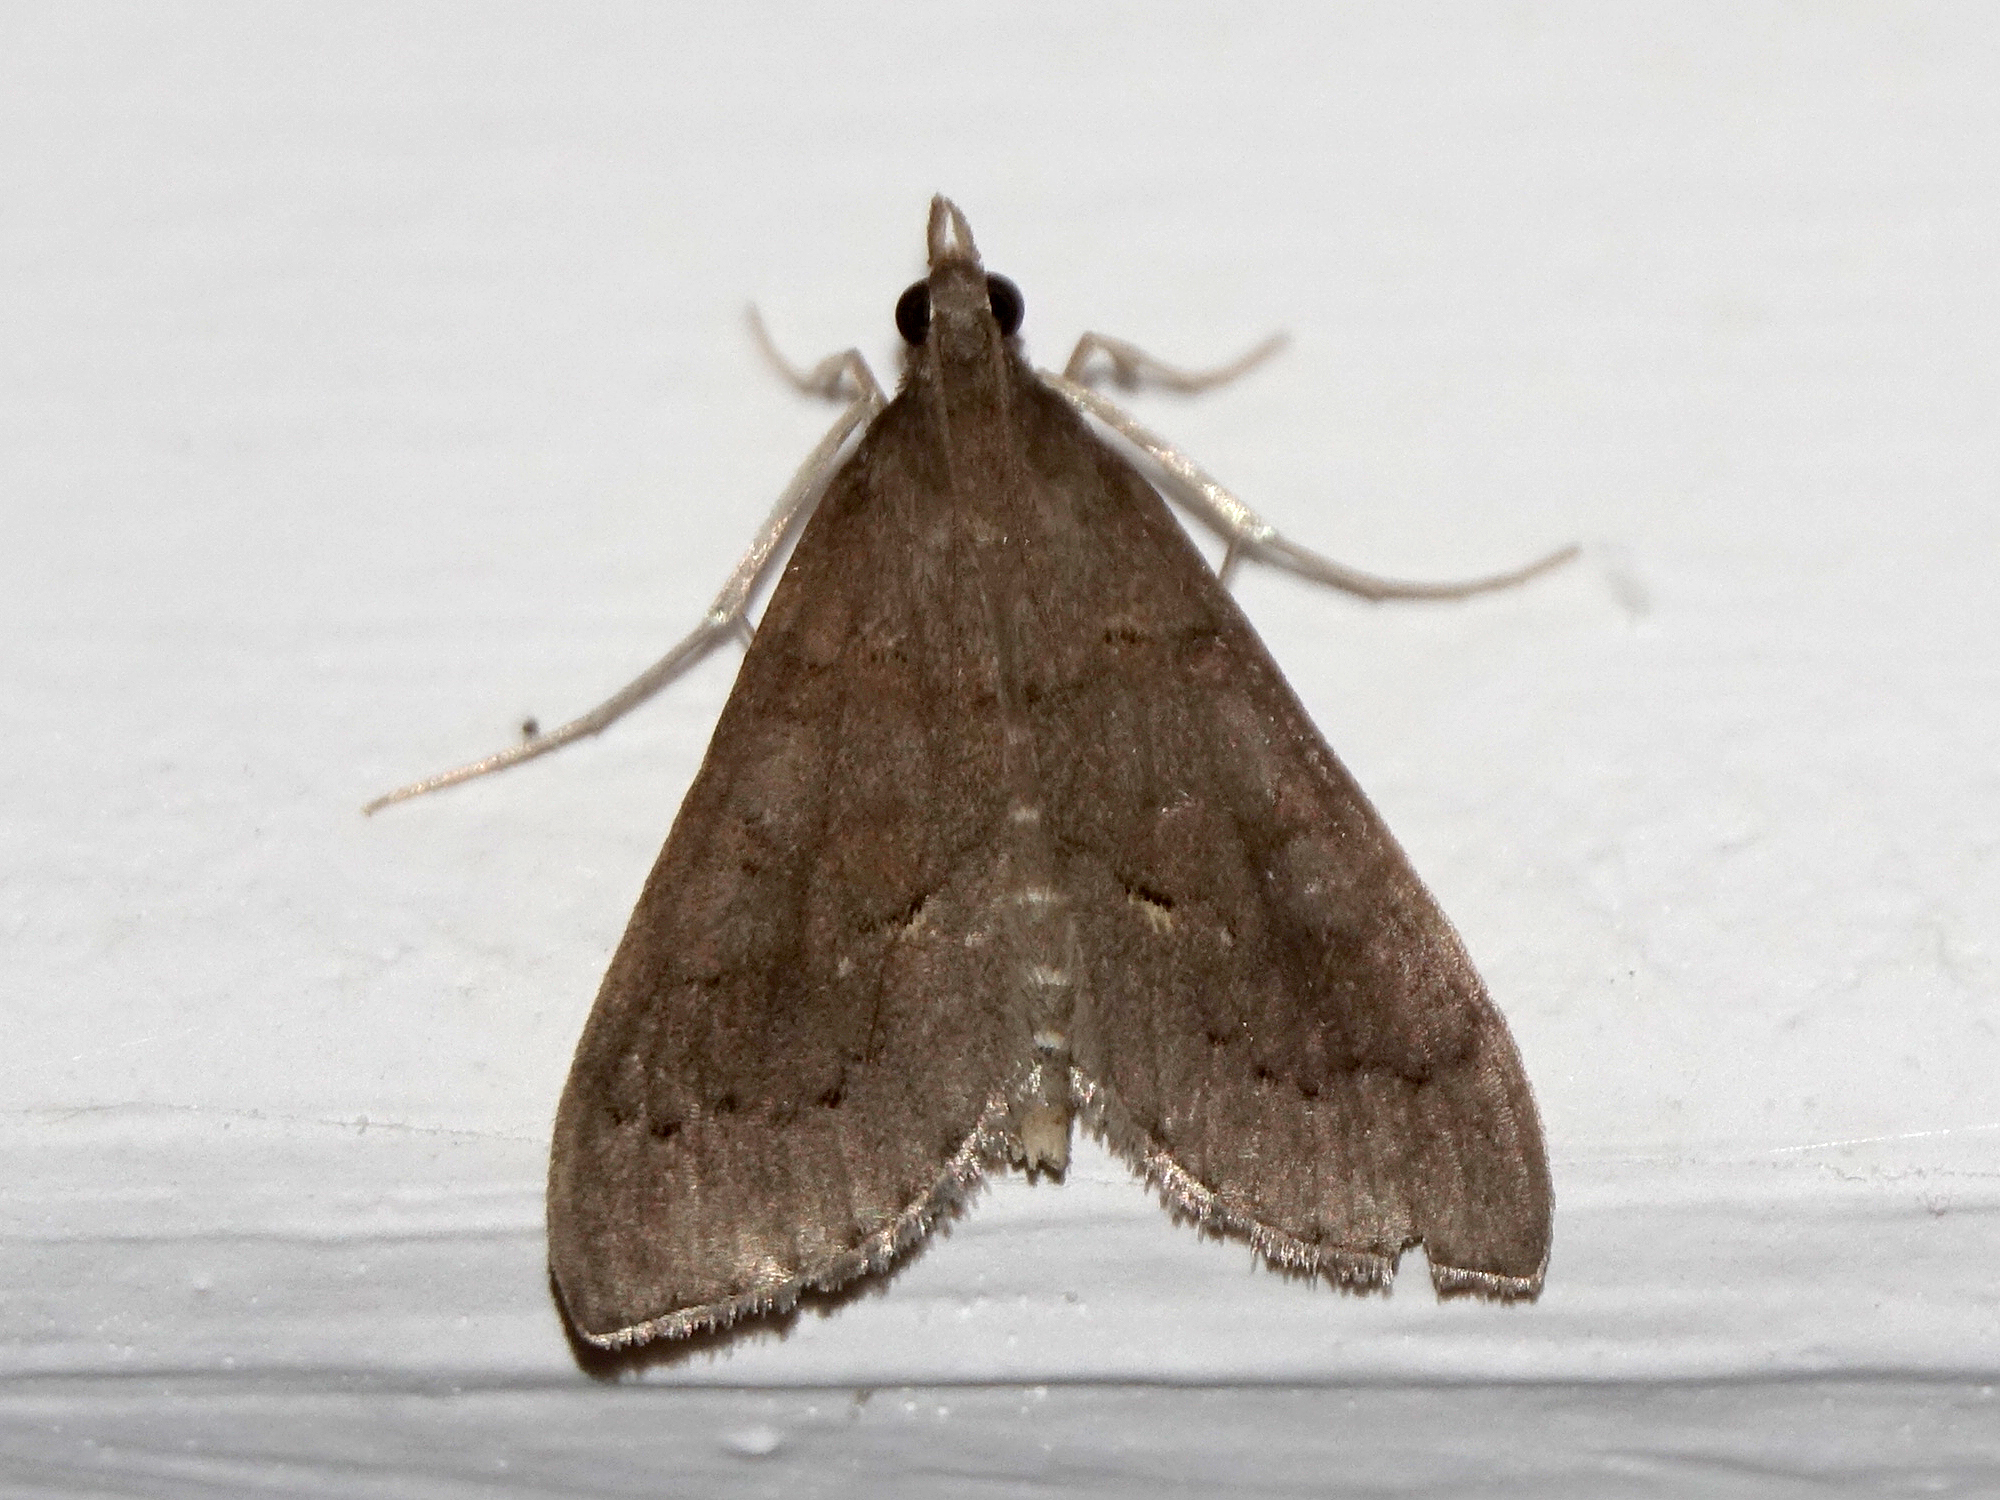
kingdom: Animalia
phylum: Arthropoda
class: Insecta
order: Lepidoptera
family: Crambidae
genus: Mecyna
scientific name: Mecyna asinalis
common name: Coastal pearl
